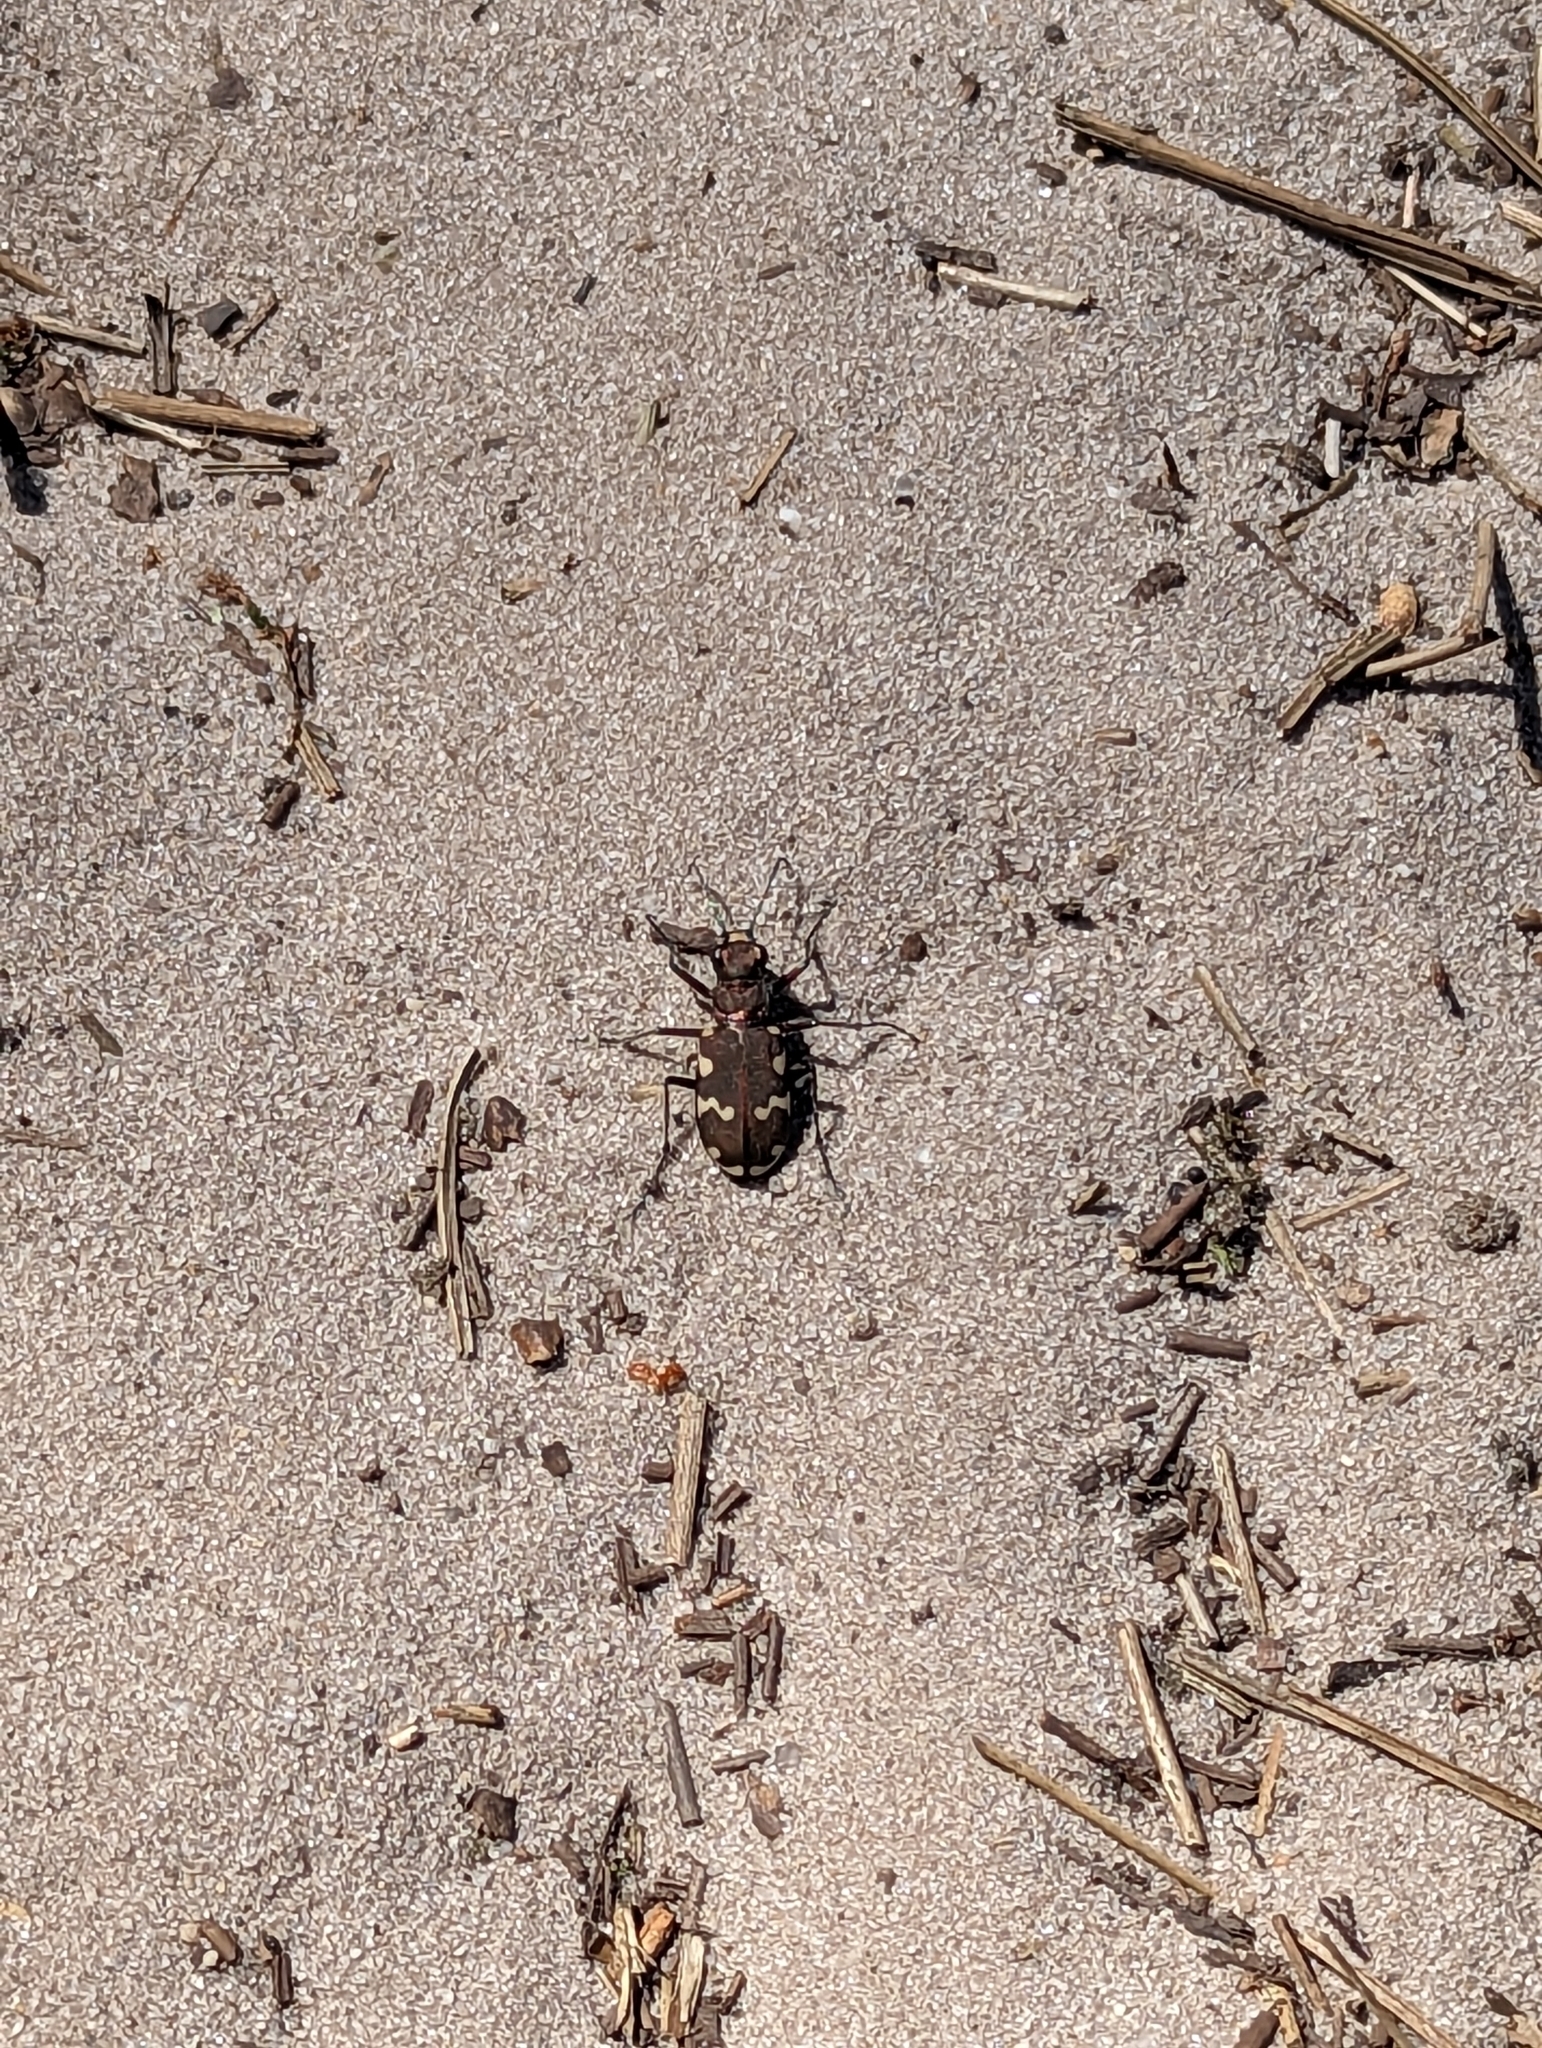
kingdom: Animalia
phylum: Arthropoda
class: Insecta
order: Coleoptera
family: Carabidae
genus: Cicindela
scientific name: Cicindela hybrida
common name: Northern dune tiger beetle
